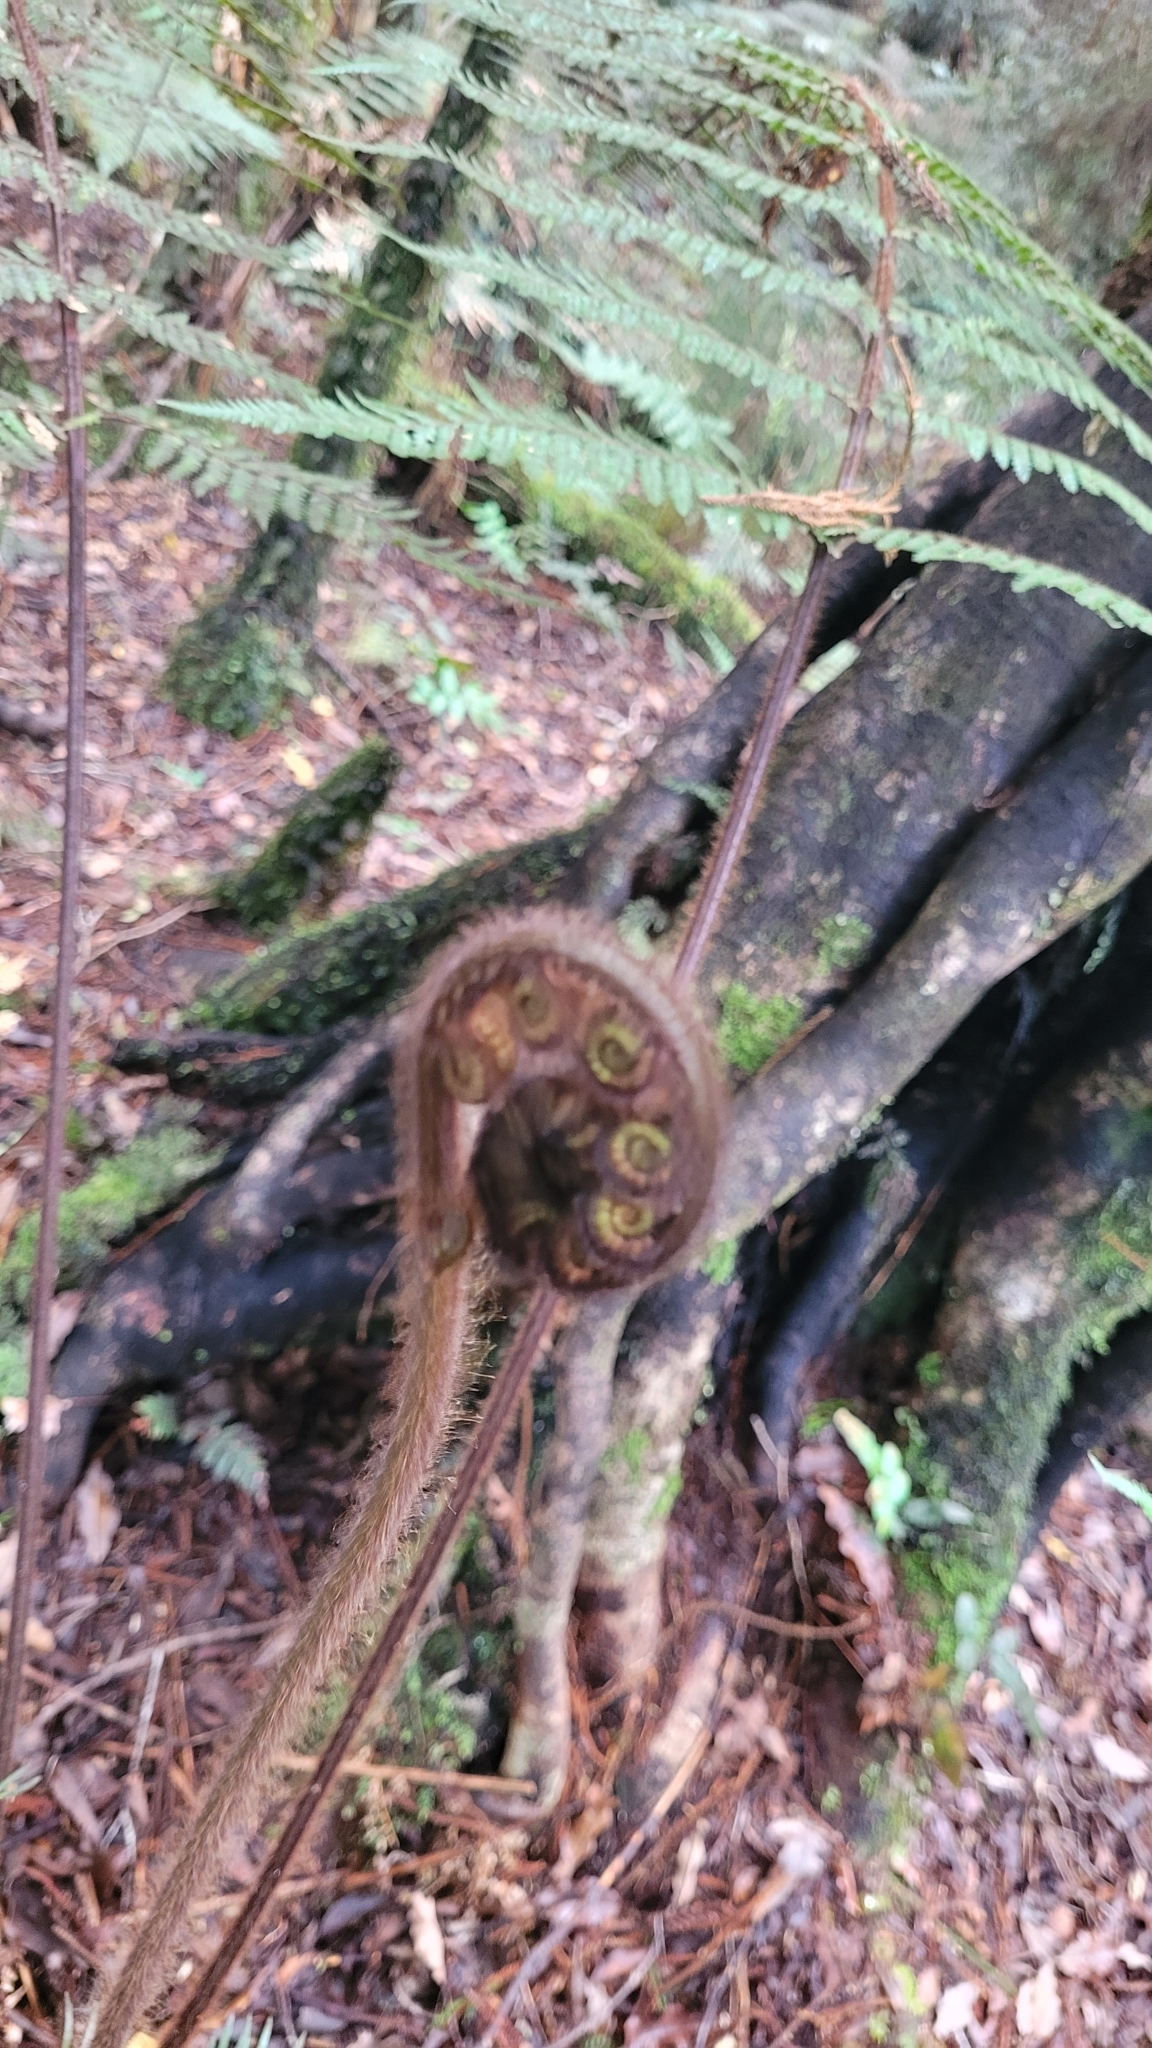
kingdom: Plantae
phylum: Tracheophyta
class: Polypodiopsida
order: Cyatheales
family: Dicksoniaceae
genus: Dicksonia
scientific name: Dicksonia squarrosa
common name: Hard treefern
